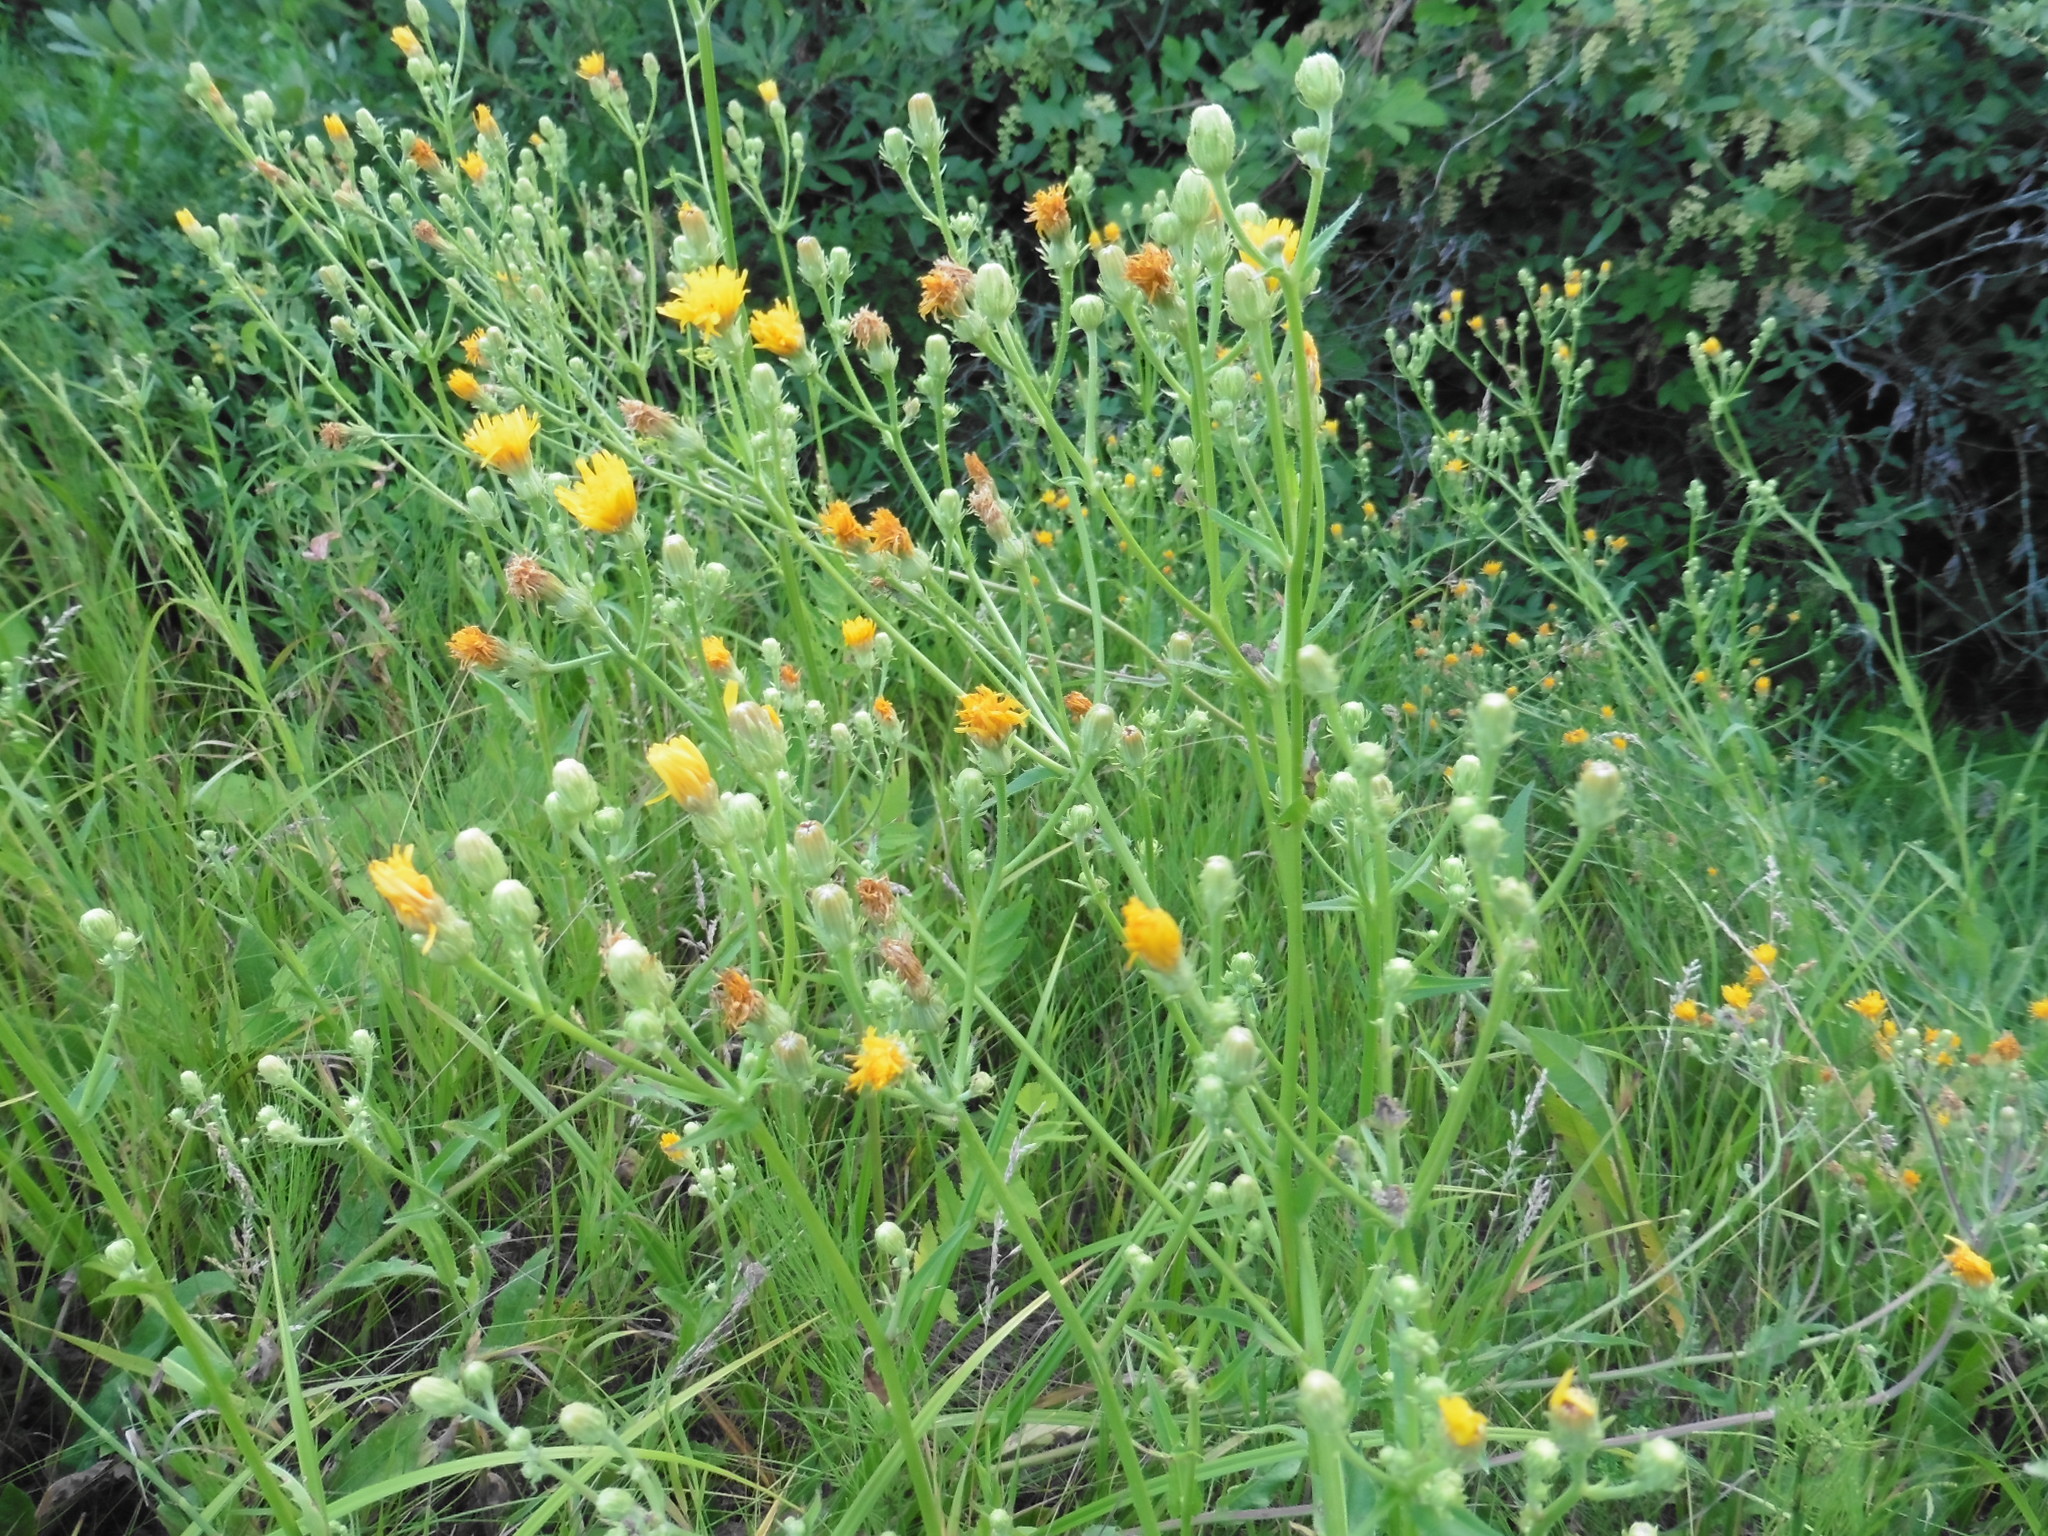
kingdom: Plantae
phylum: Tracheophyta
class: Magnoliopsida
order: Asterales
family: Asteraceae
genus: Picris
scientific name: Picris hieracioides
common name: Hawkweed oxtongue
